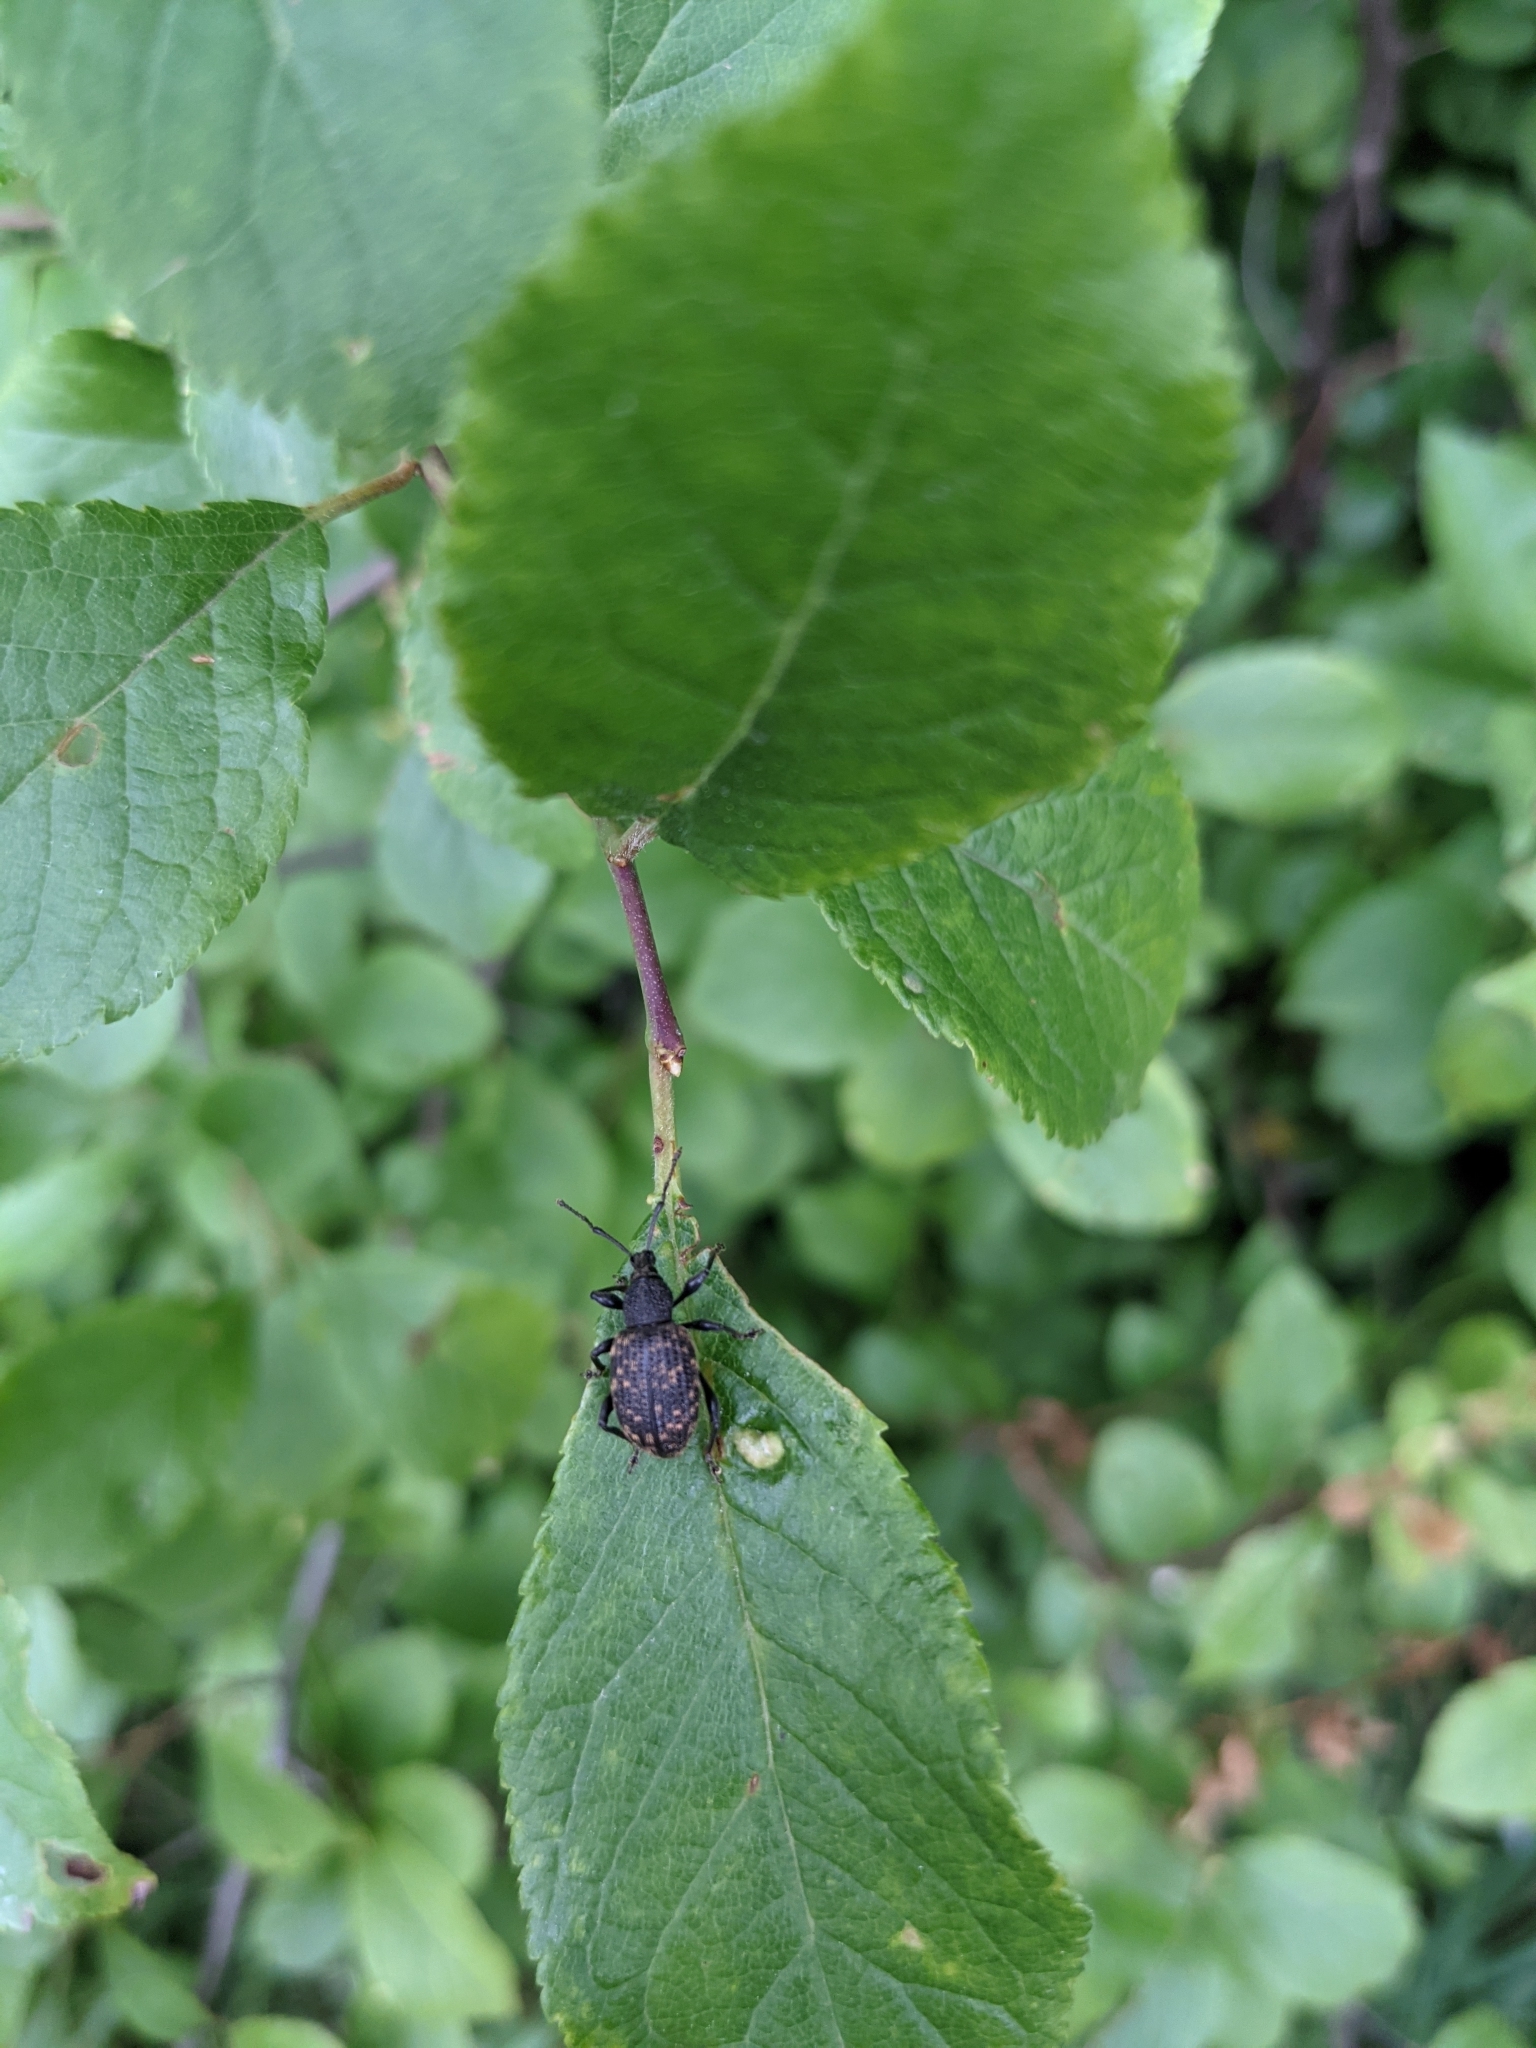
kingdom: Animalia
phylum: Arthropoda
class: Insecta
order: Coleoptera
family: Curculionidae
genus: Otiorhynchus
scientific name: Otiorhynchus sulcatus
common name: Black vine weevil
